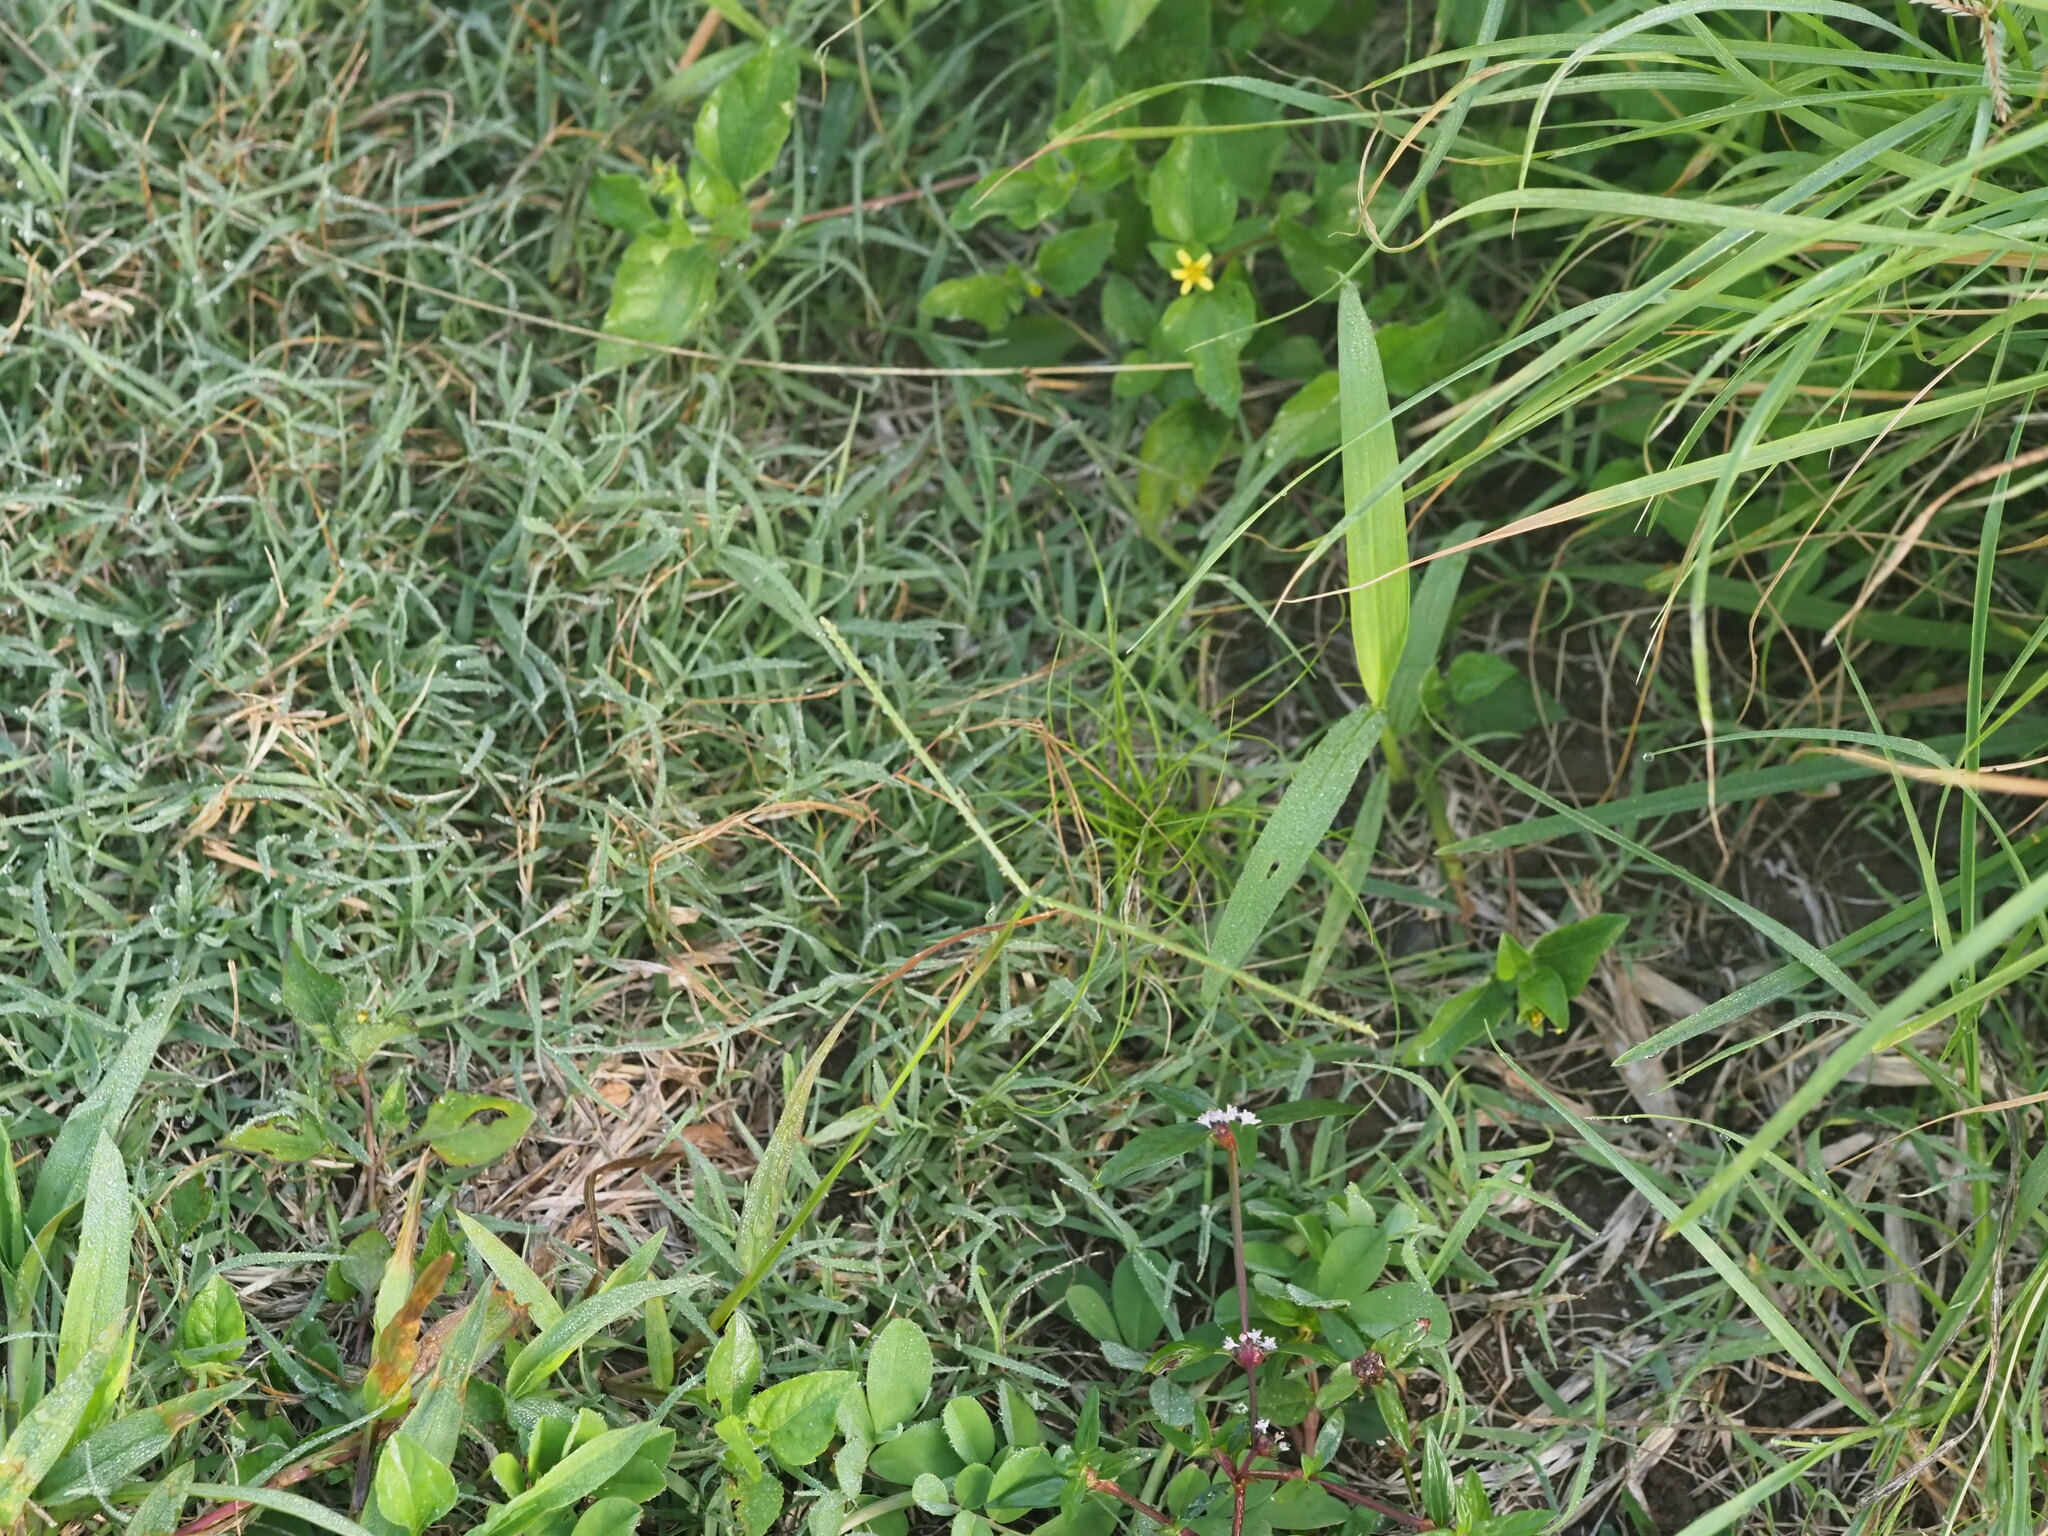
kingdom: Plantae
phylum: Tracheophyta
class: Liliopsida
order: Poales
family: Poaceae
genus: Paspalum
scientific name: Paspalum conjugatum
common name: Hilograss
